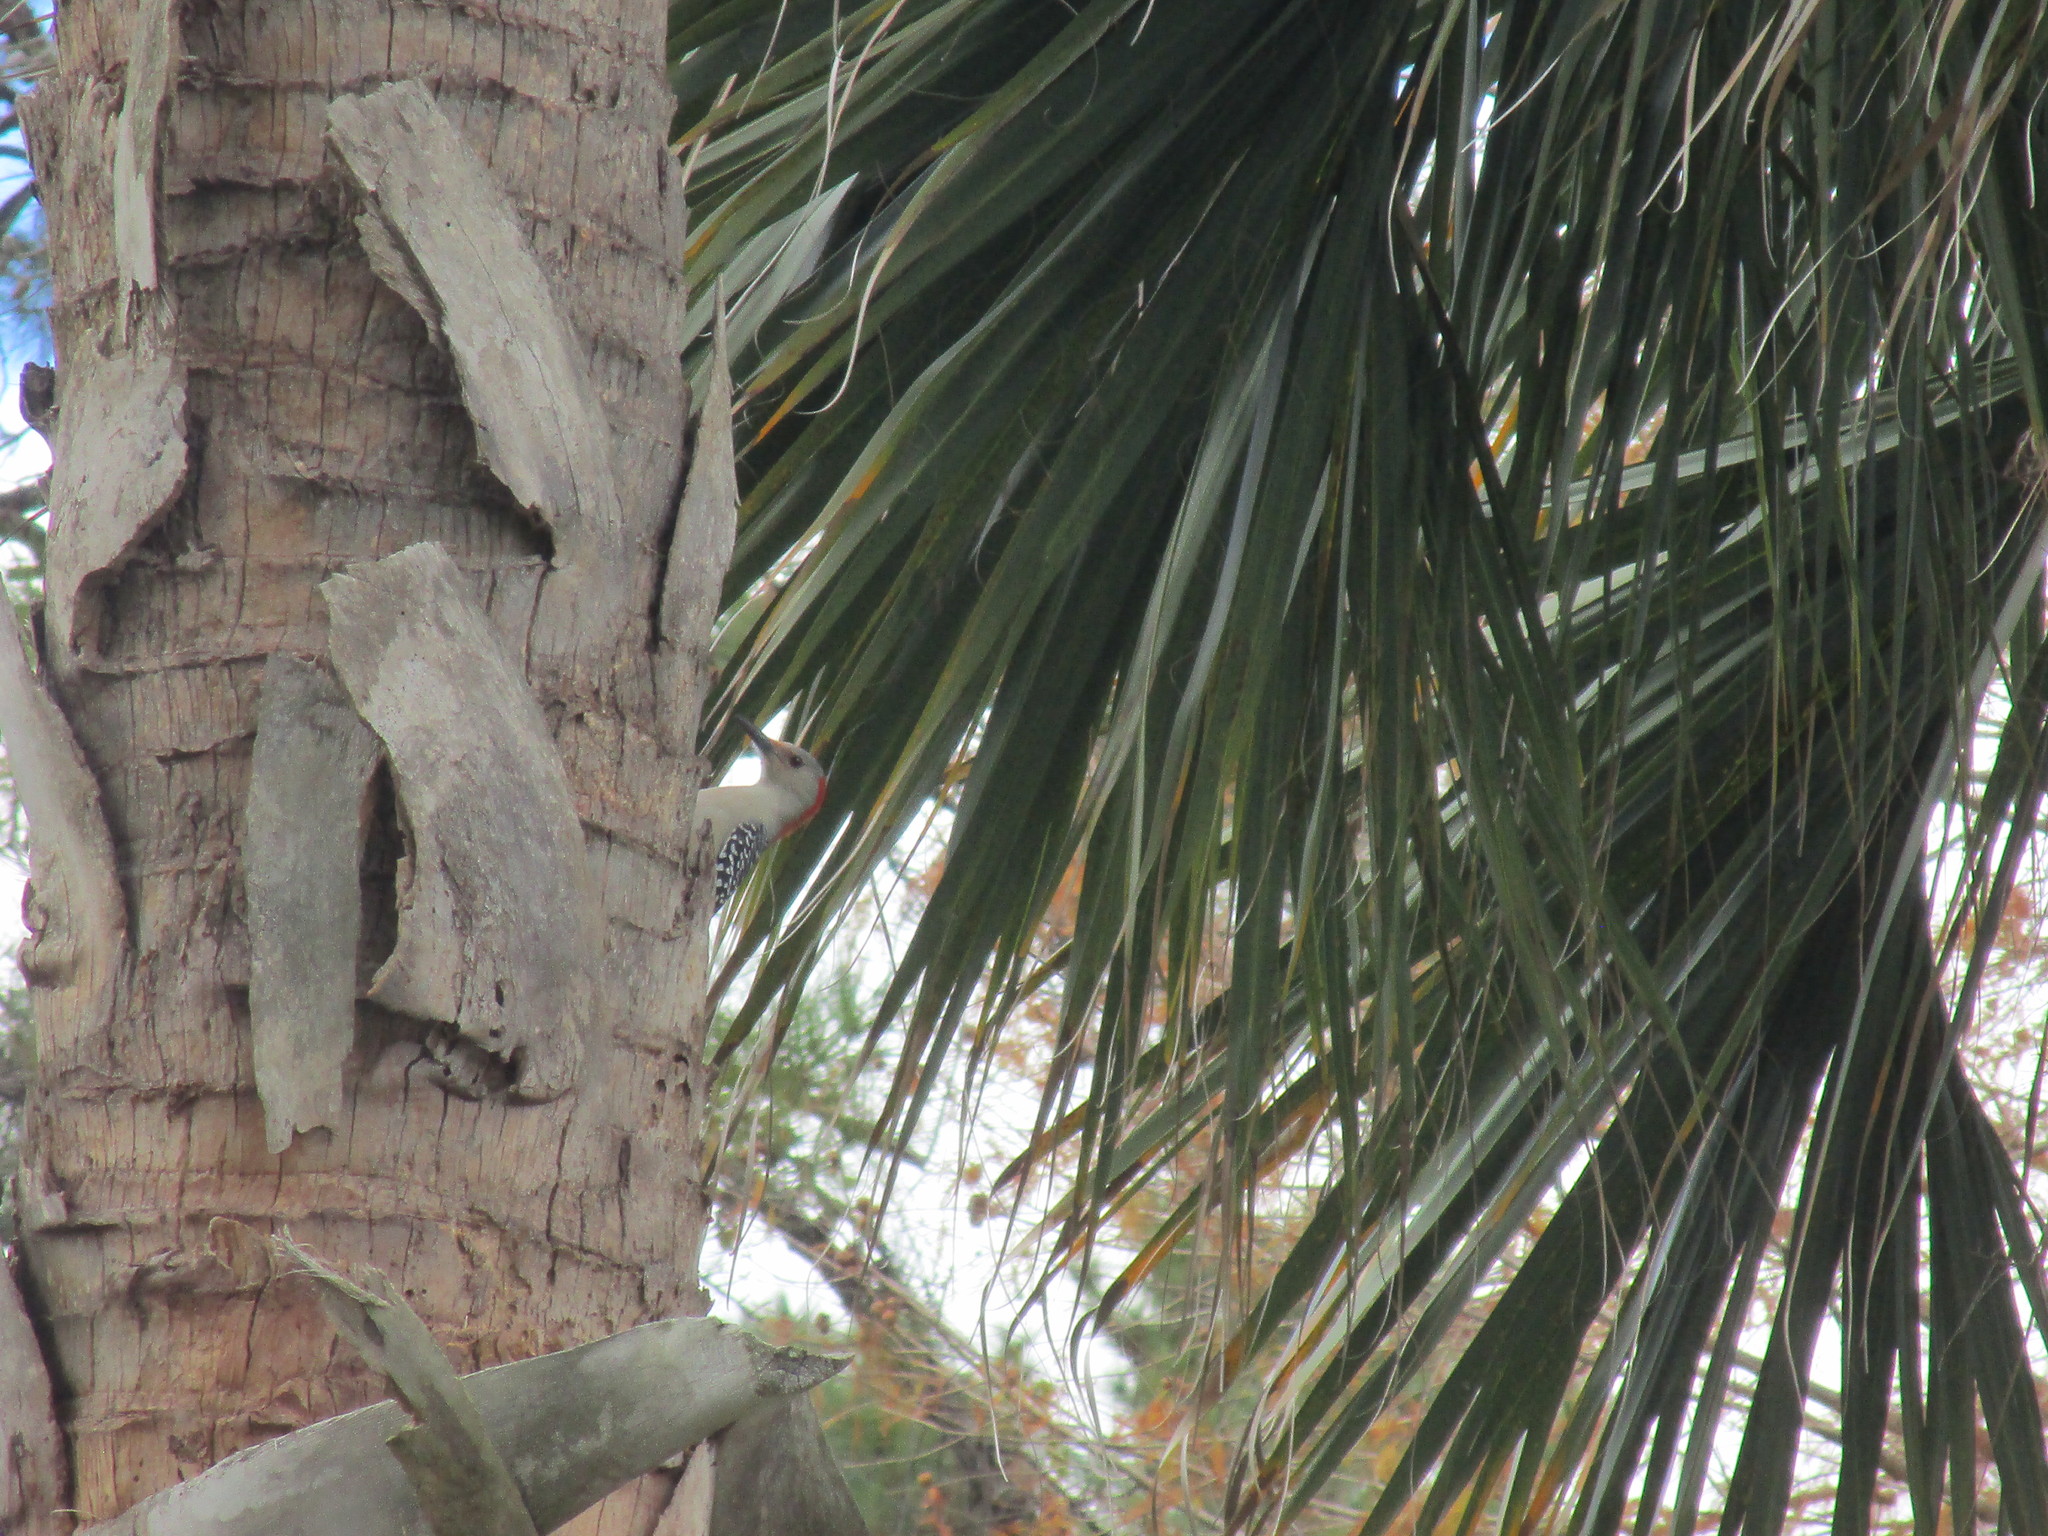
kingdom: Animalia
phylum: Chordata
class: Aves
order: Piciformes
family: Picidae
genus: Melanerpes
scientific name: Melanerpes carolinus
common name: Red-bellied woodpecker
